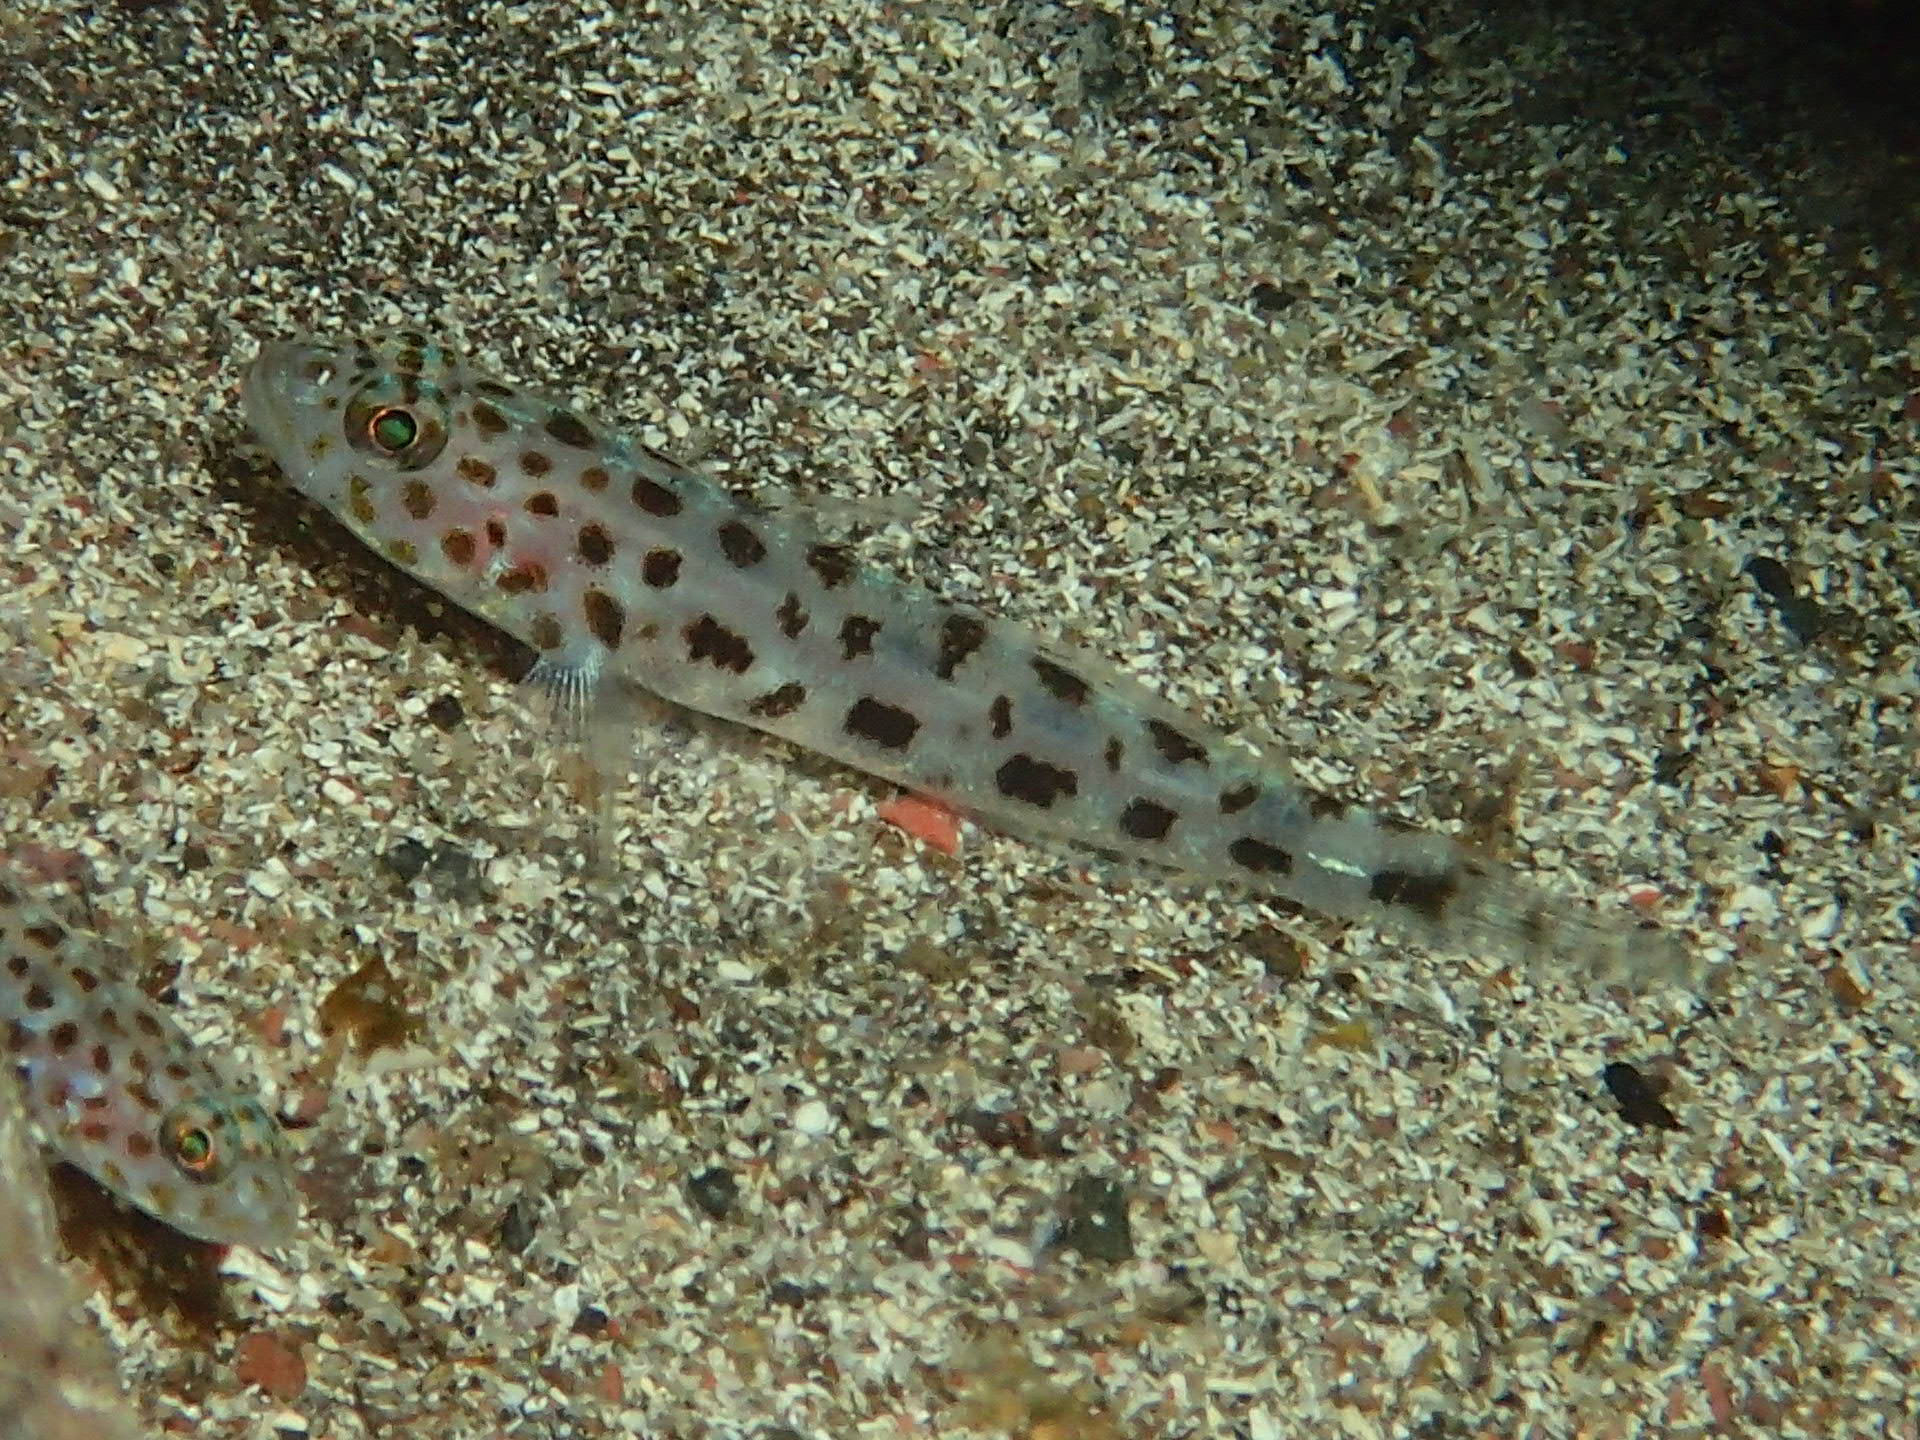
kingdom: Animalia
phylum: Chordata
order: Perciformes
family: Gobiidae
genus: Thorogobius
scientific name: Thorogobius ephippiatus
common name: Leopard-spotted goby
